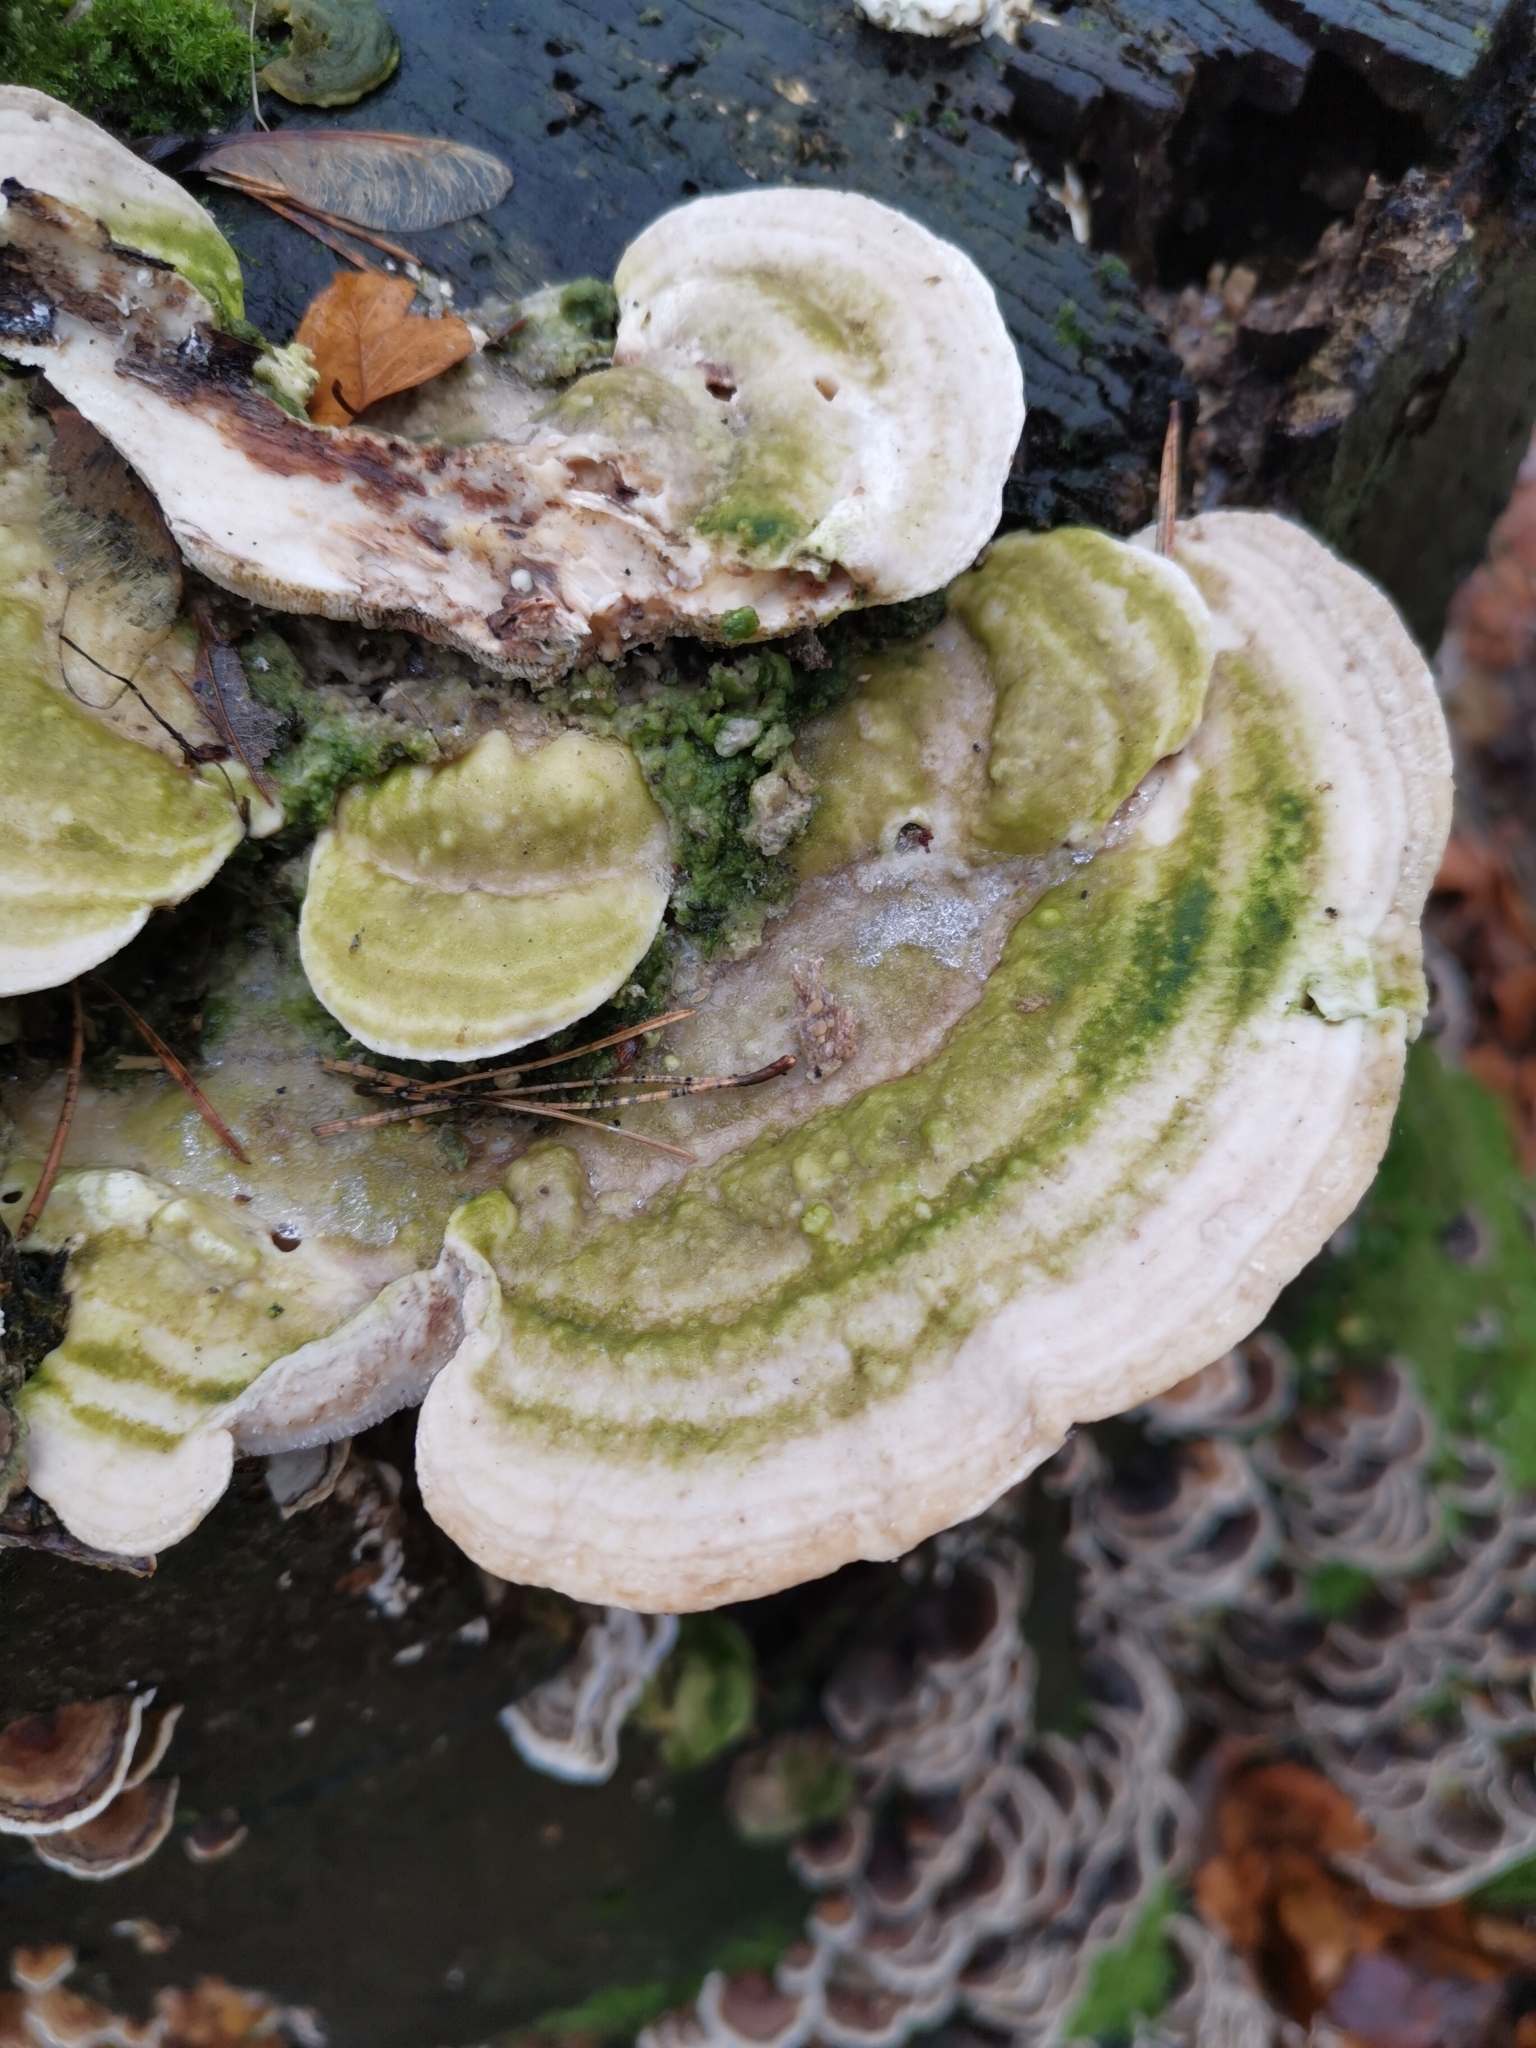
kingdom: Fungi
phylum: Basidiomycota
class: Agaricomycetes
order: Polyporales
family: Polyporaceae
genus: Trametes
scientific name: Trametes gibbosa
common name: Lumpy bracket
